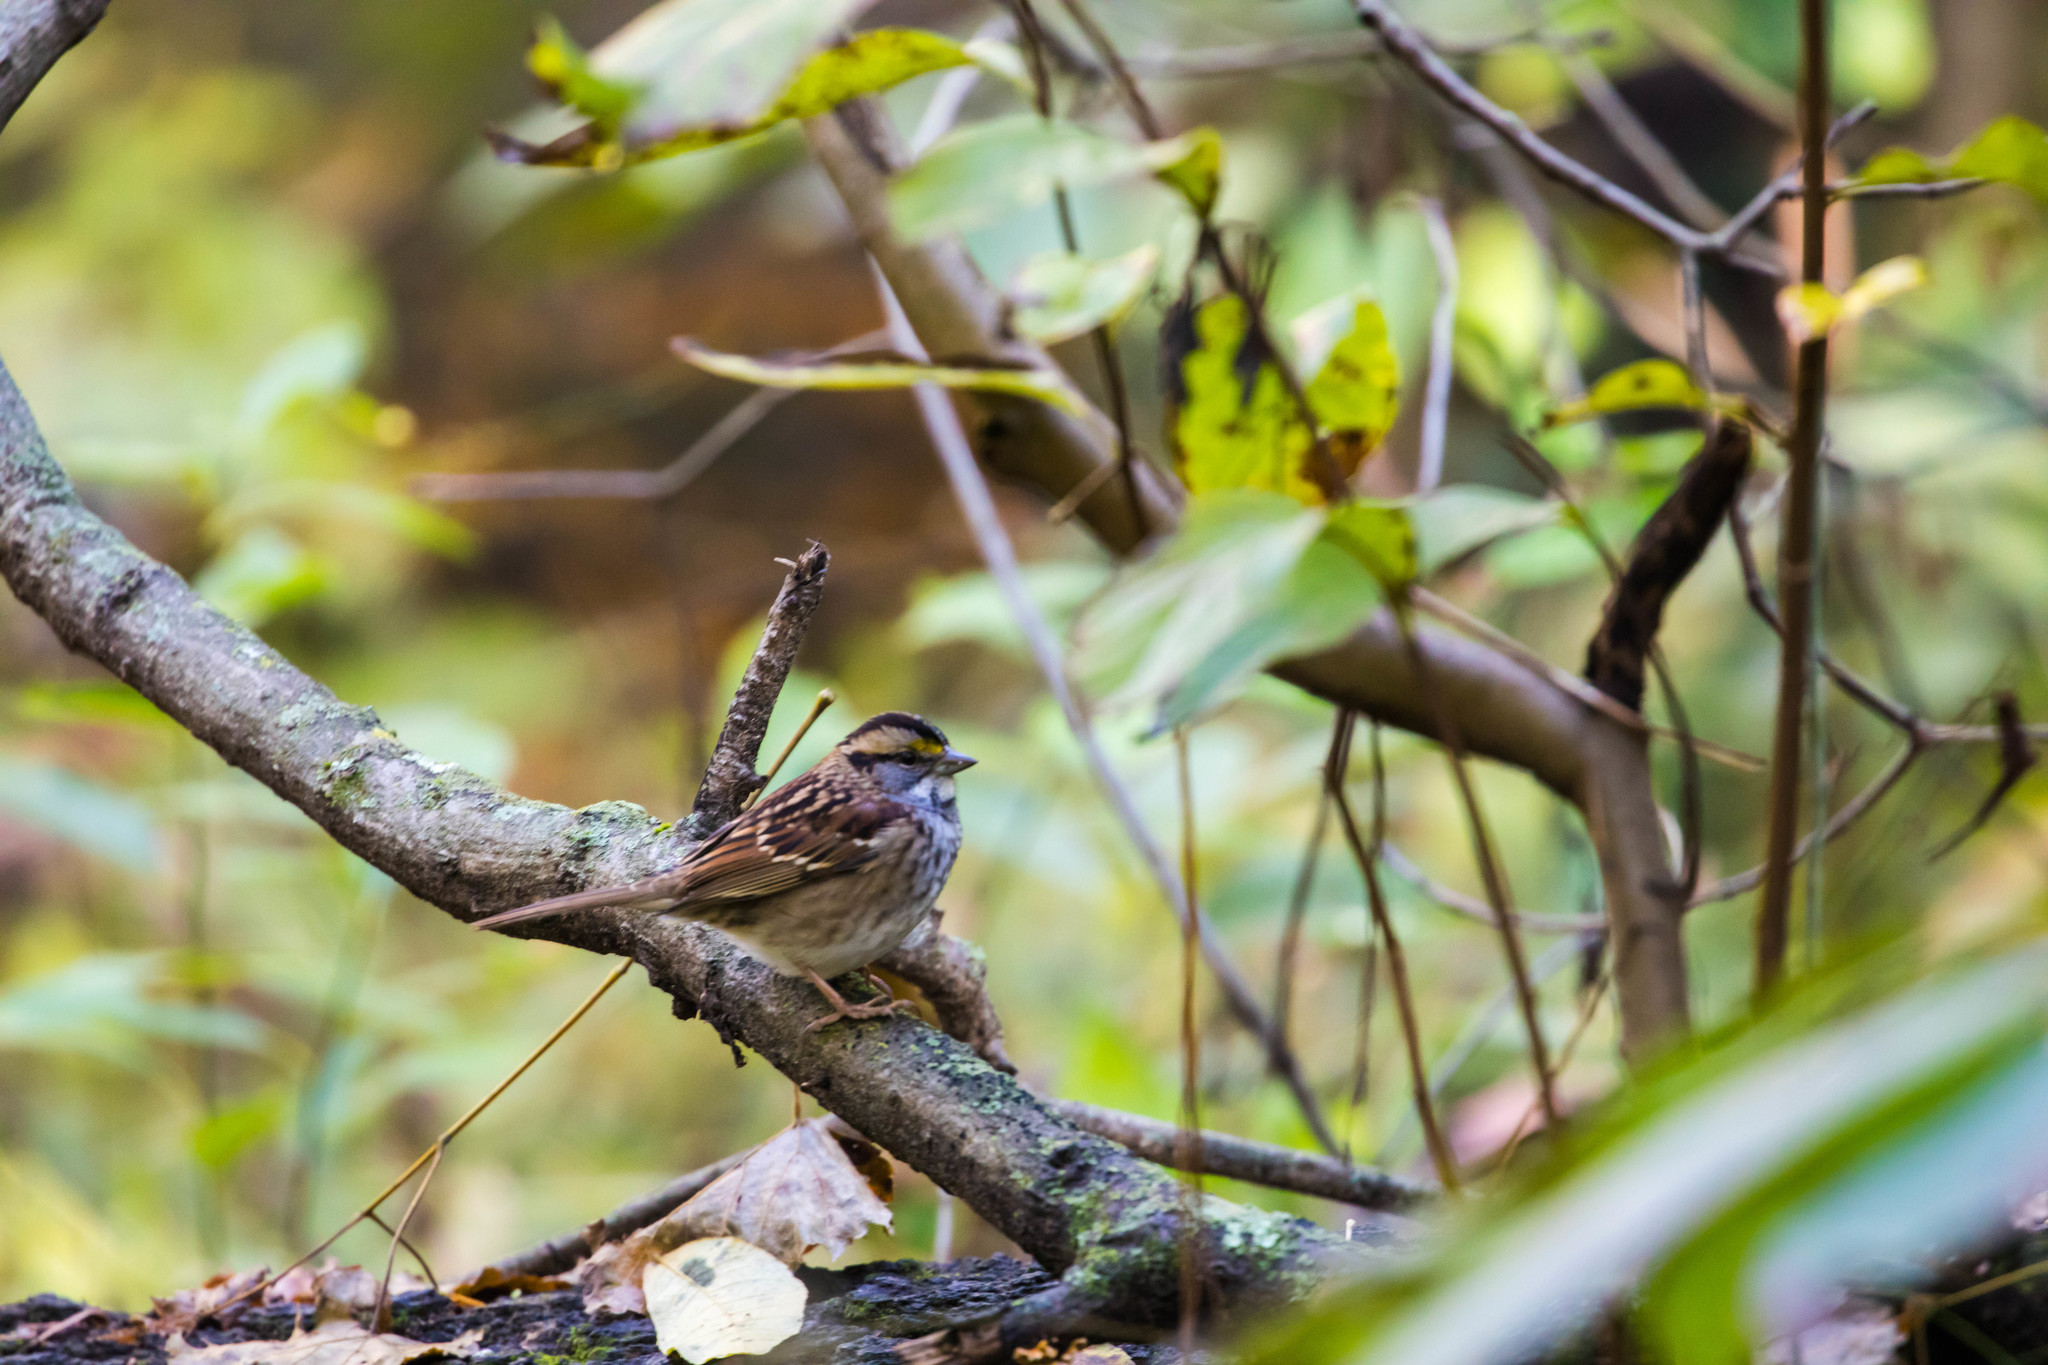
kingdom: Animalia
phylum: Chordata
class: Aves
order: Passeriformes
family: Passerellidae
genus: Zonotrichia
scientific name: Zonotrichia albicollis
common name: White-throated sparrow
